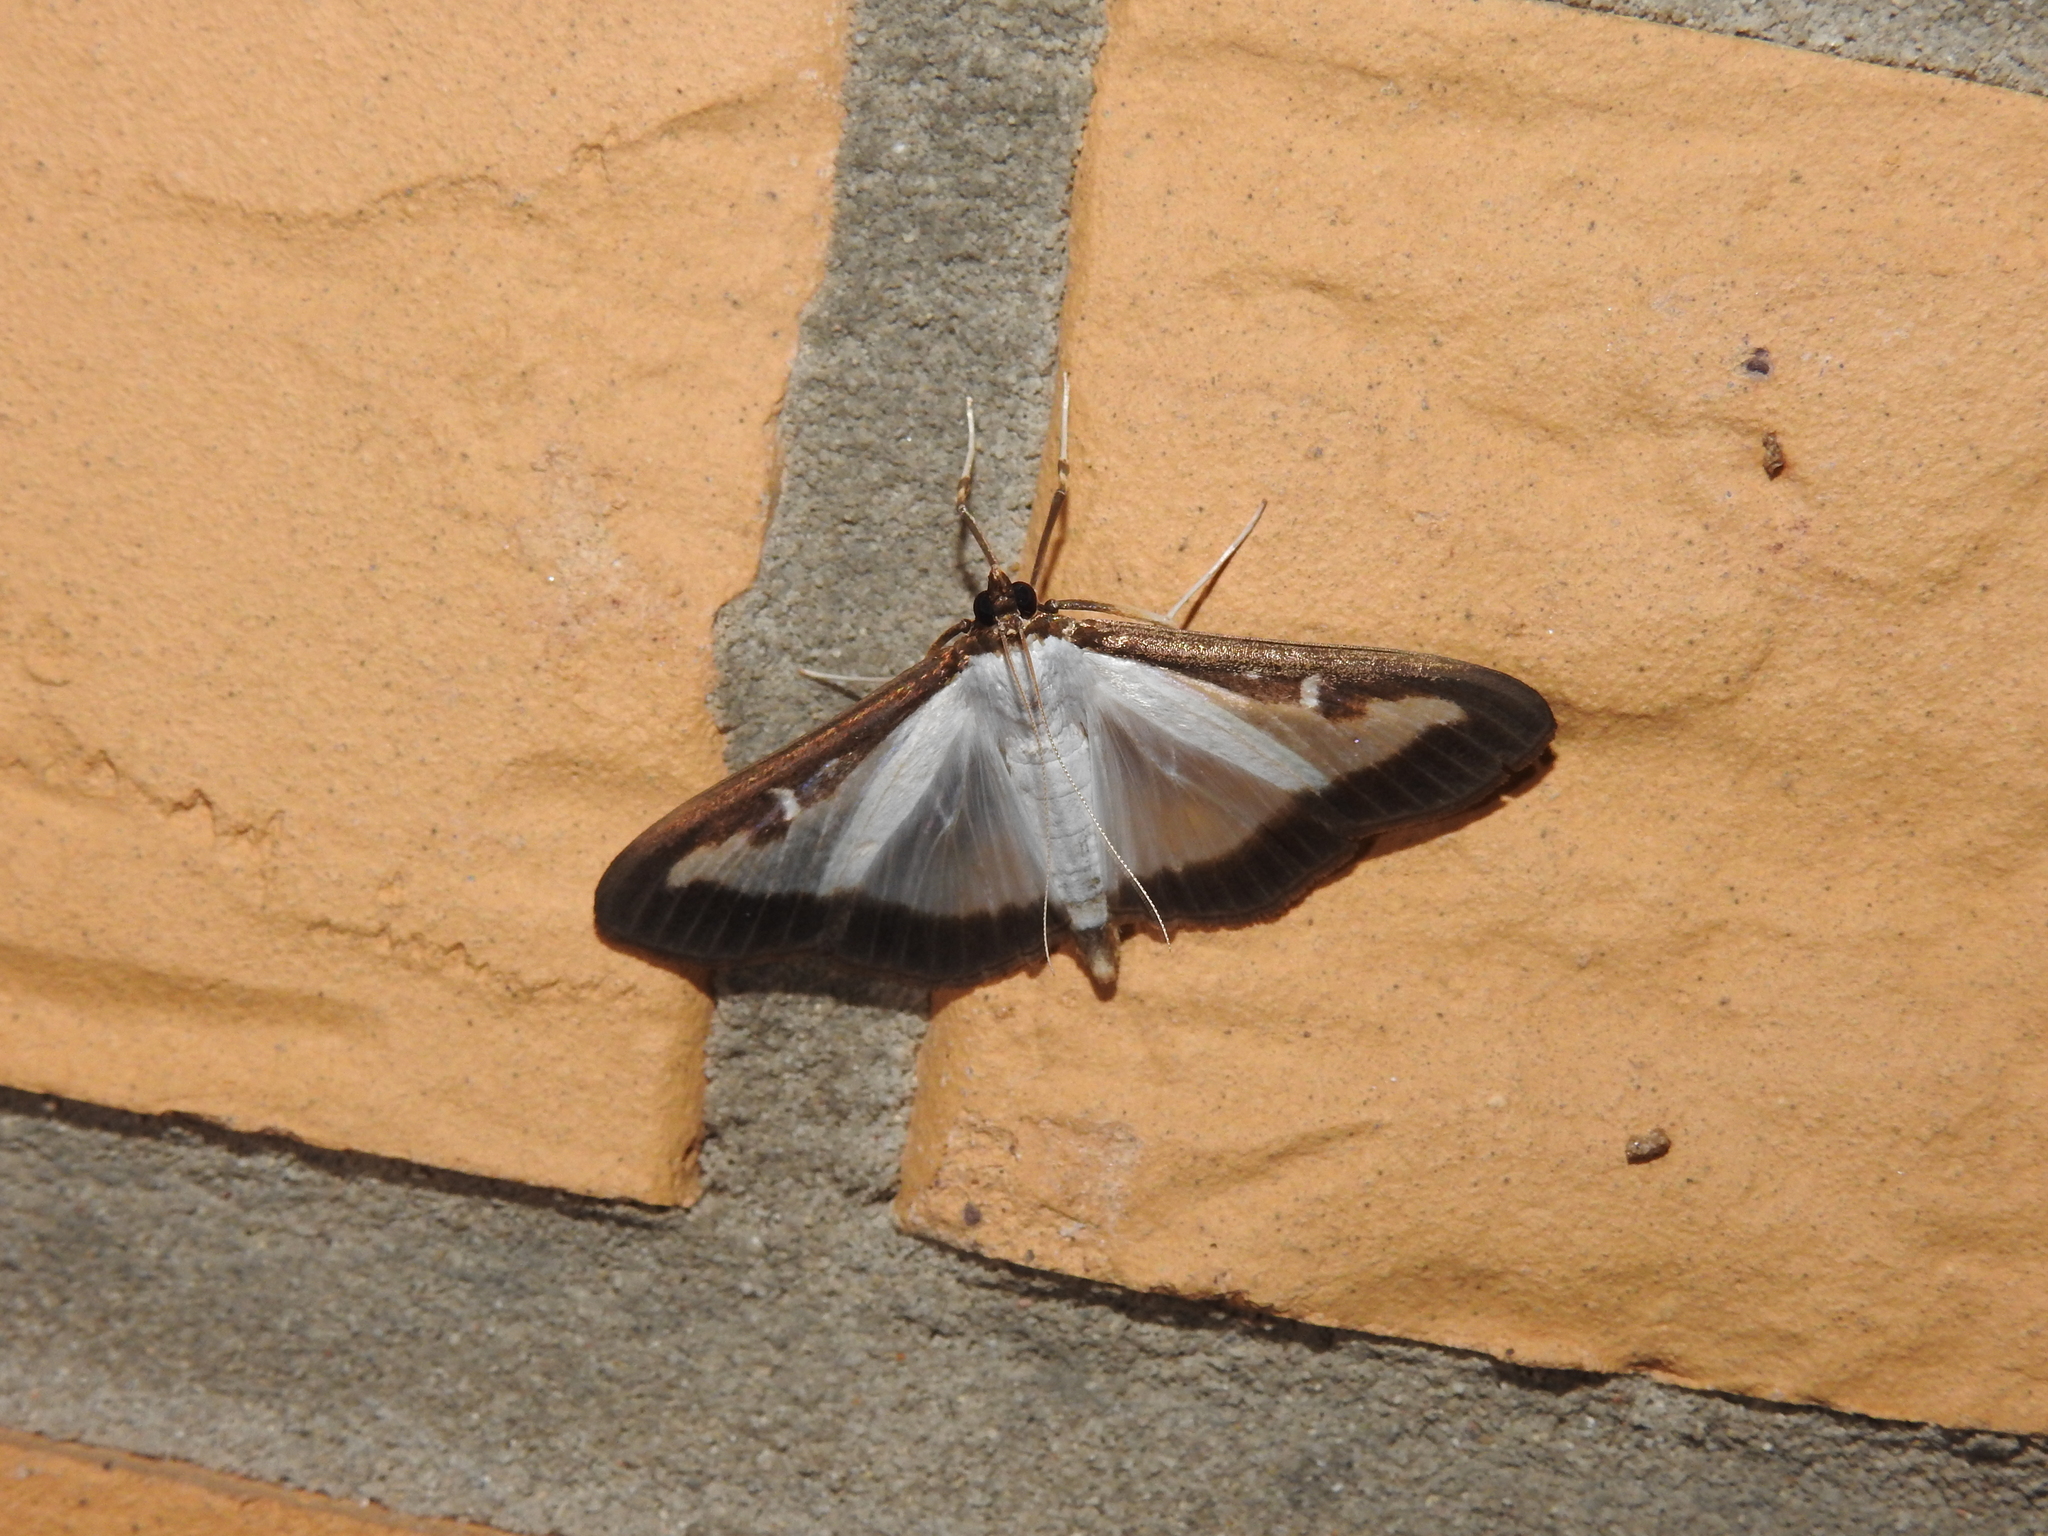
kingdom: Animalia
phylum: Arthropoda
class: Insecta
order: Lepidoptera
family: Crambidae
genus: Cydalima
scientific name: Cydalima perspectalis
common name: Box tree moth
